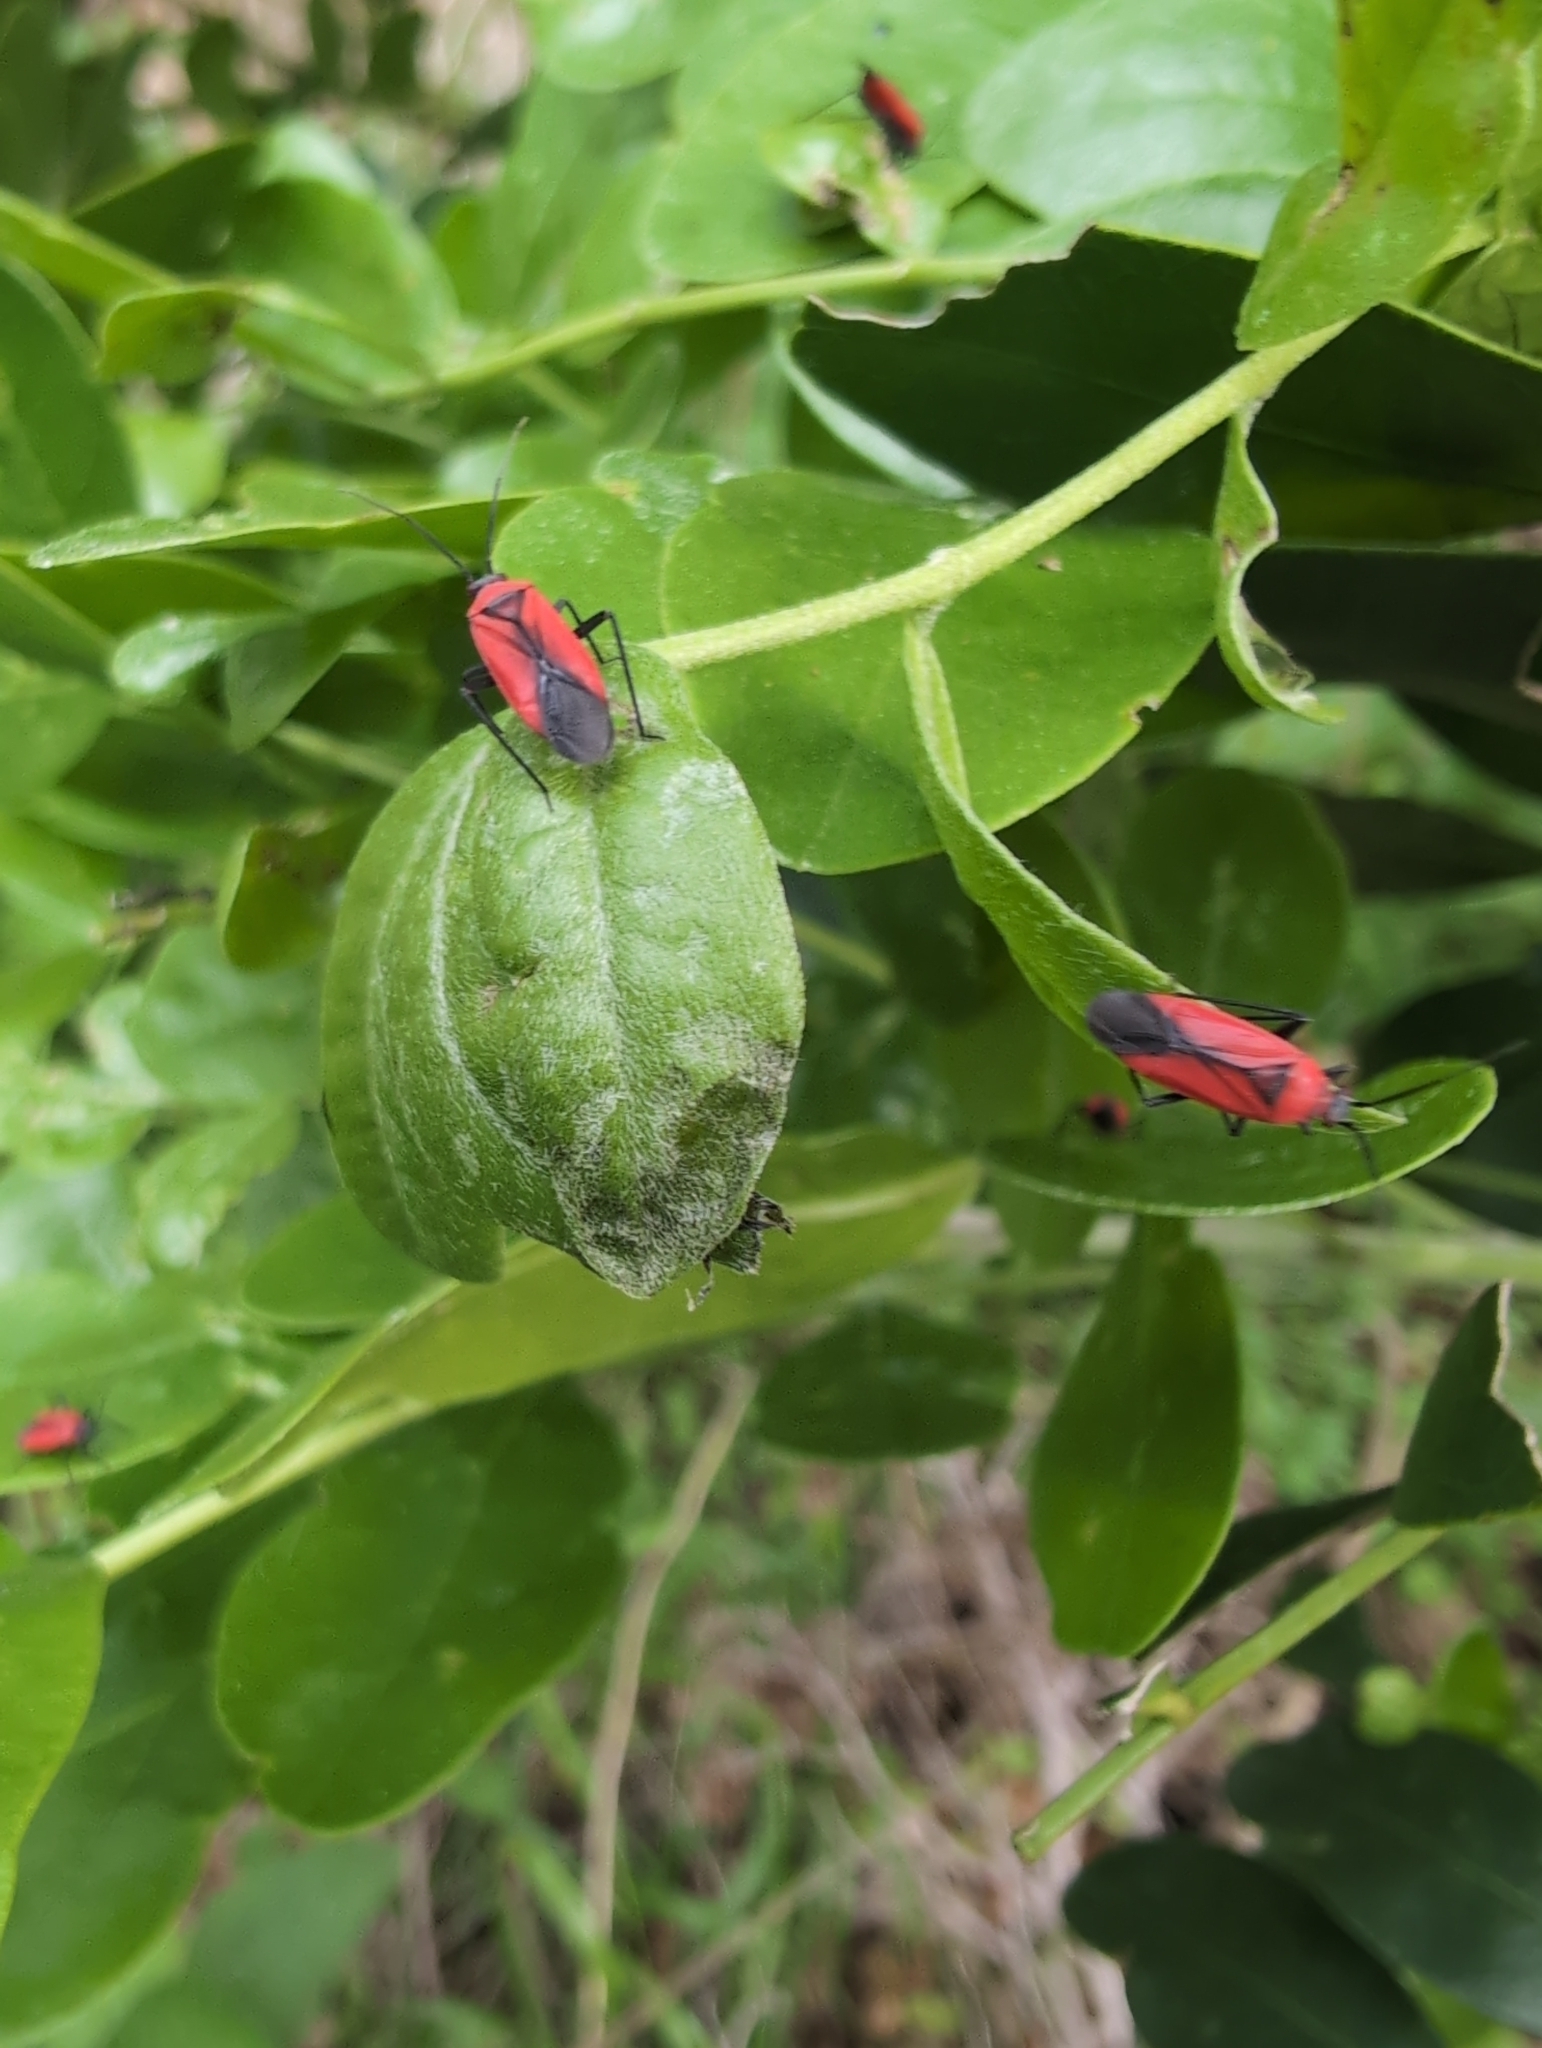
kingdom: Animalia
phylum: Arthropoda
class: Insecta
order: Hemiptera
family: Miridae
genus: Lopidea
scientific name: Lopidea major
